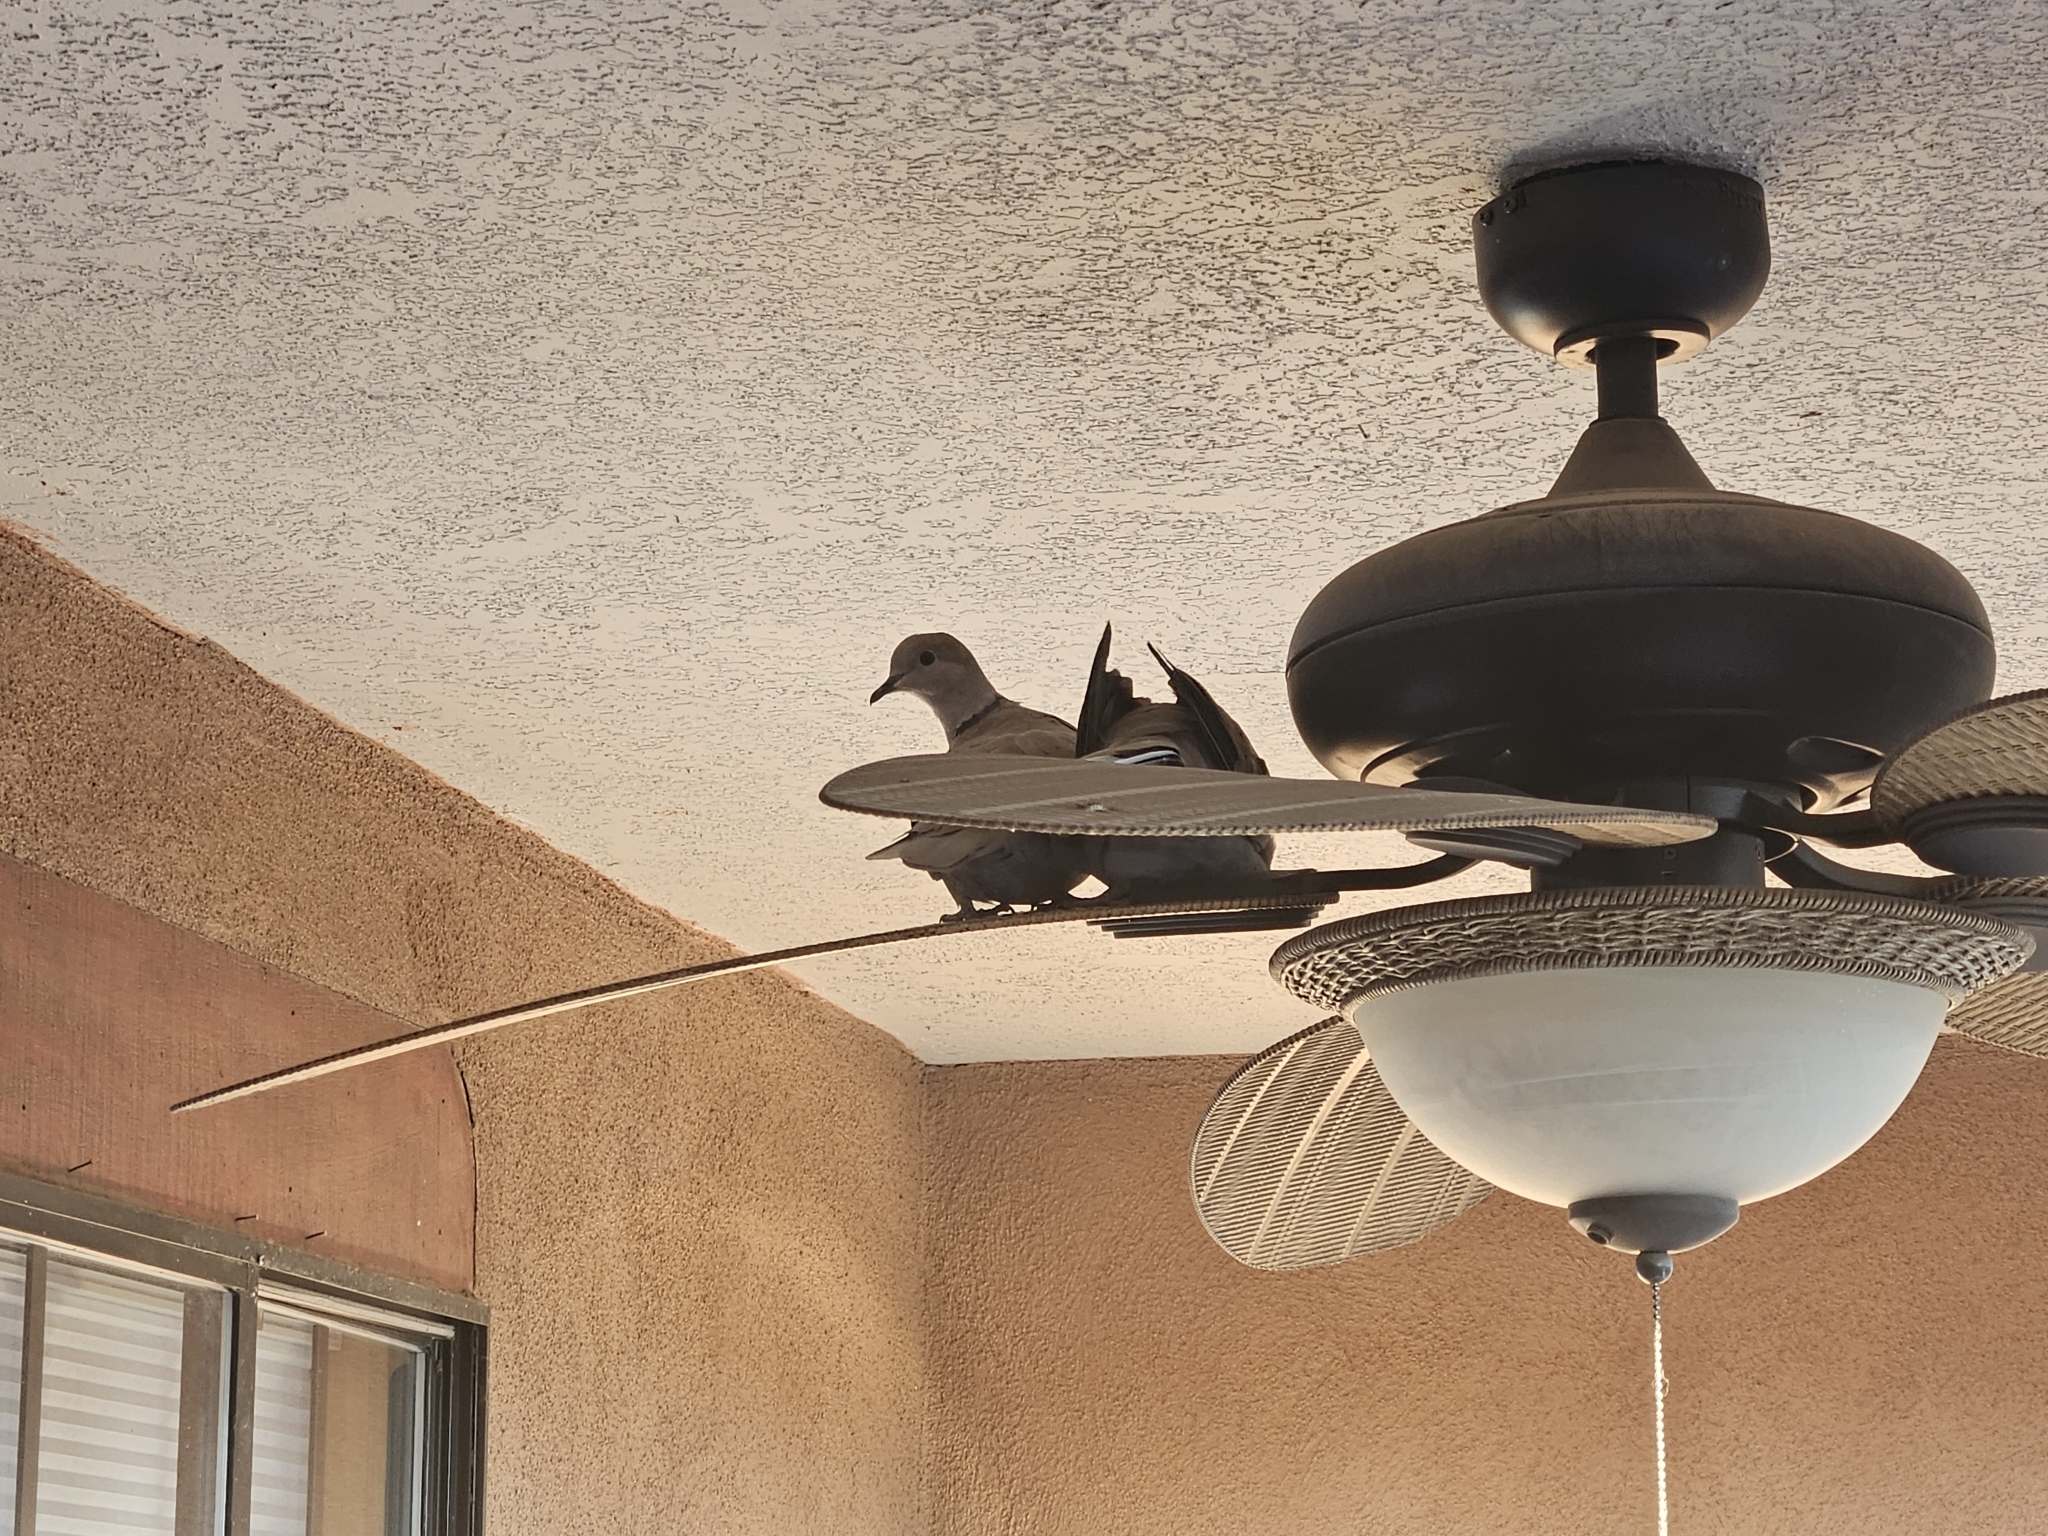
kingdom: Animalia
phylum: Chordata
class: Aves
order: Columbiformes
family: Columbidae
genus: Streptopelia
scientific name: Streptopelia decaocto
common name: Eurasian collared dove
